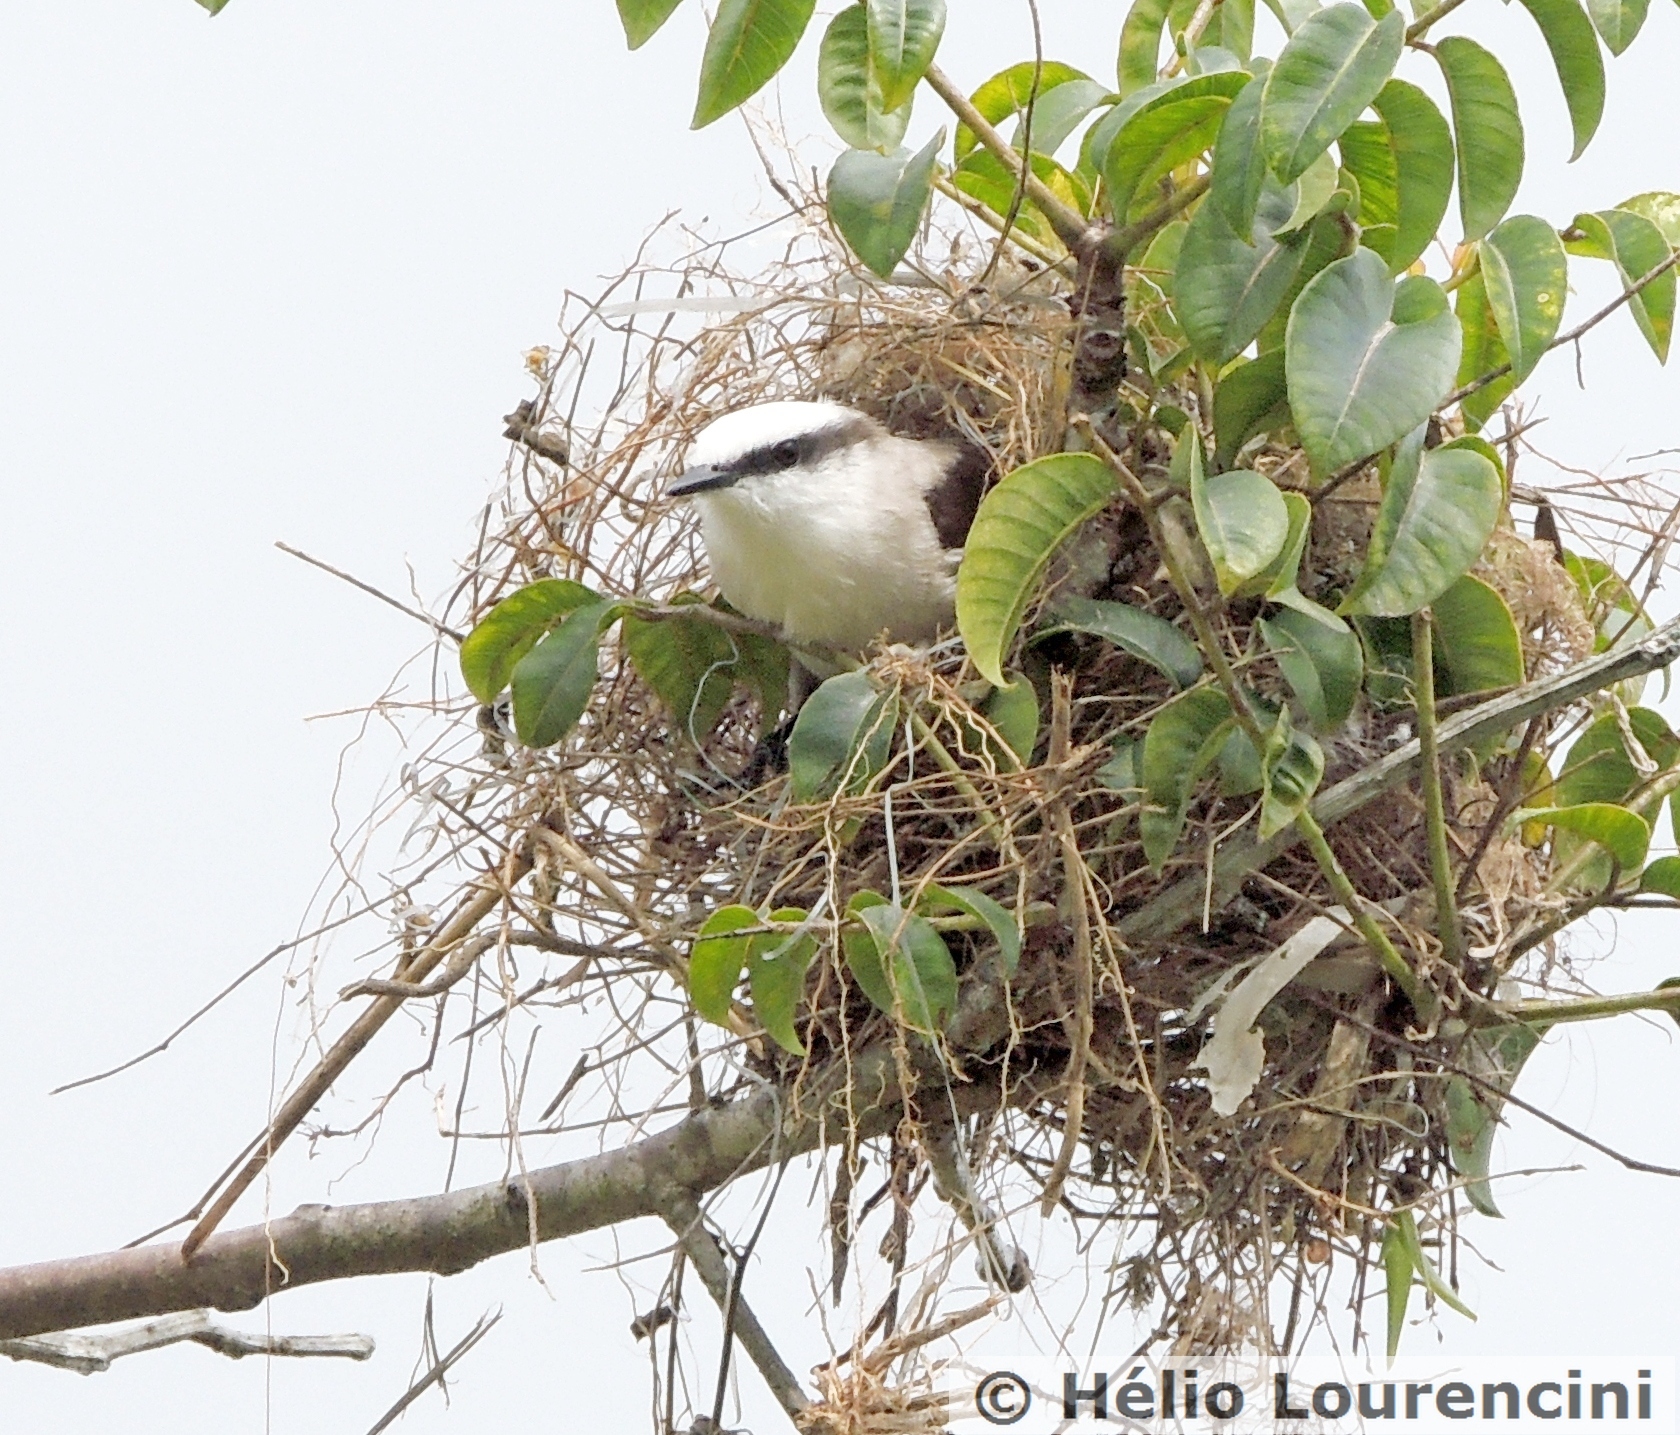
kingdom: Animalia
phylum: Chordata
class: Aves
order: Passeriformes
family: Tyrannidae
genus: Fluvicola
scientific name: Fluvicola nengeta
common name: Masked water tyrant
